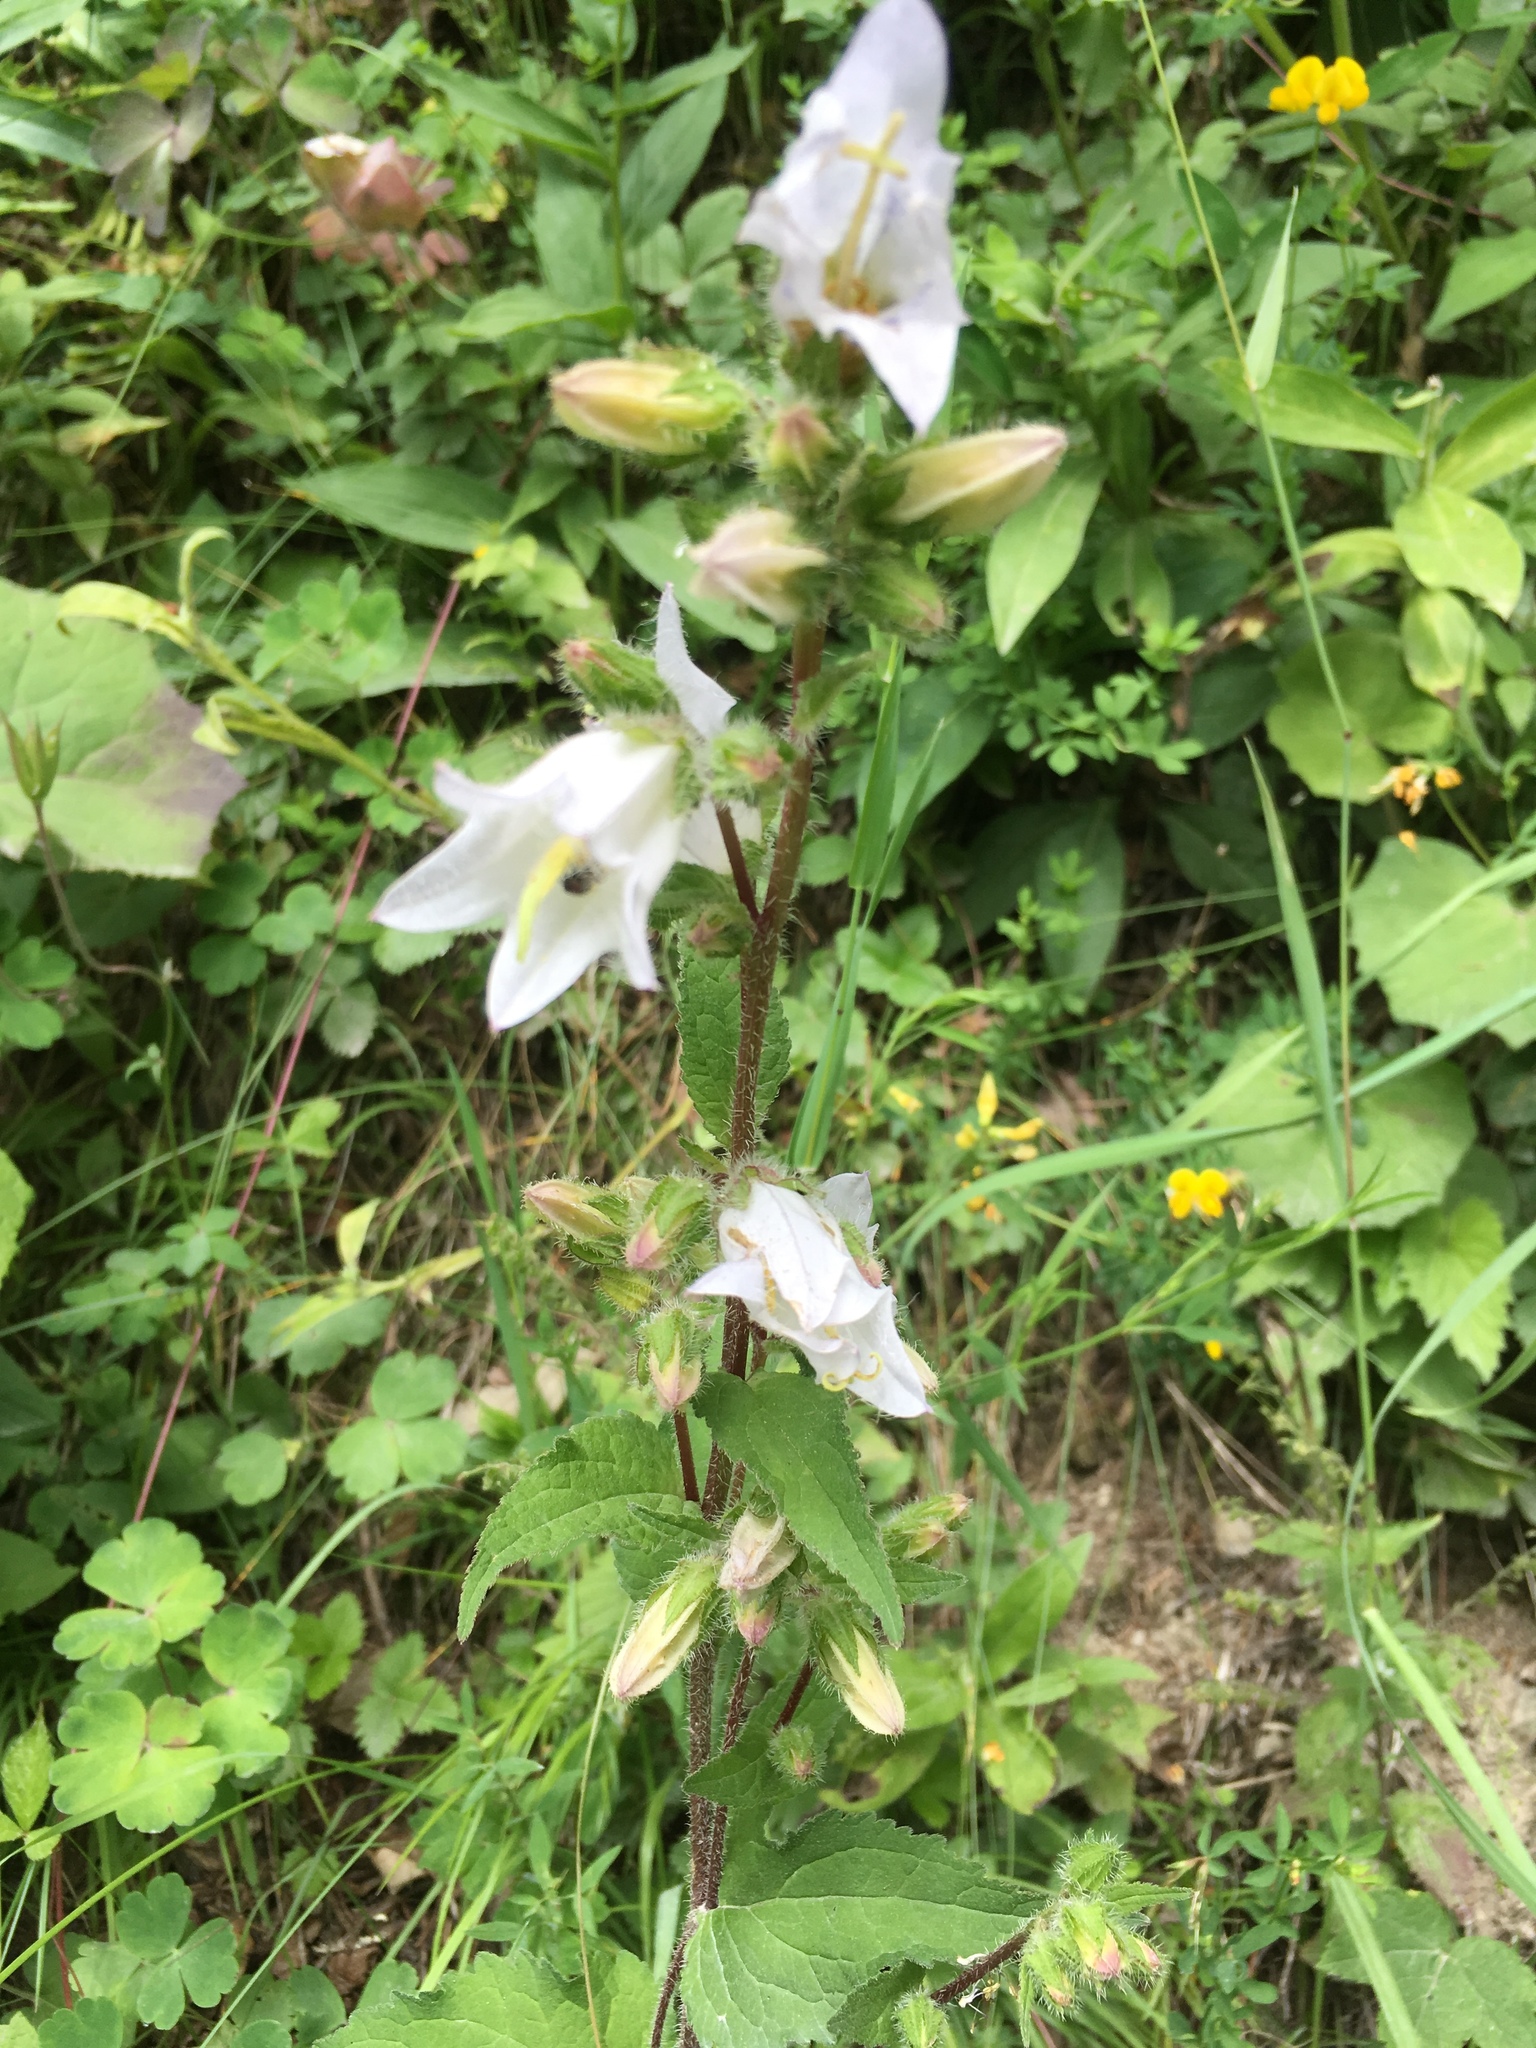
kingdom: Plantae
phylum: Tracheophyta
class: Magnoliopsida
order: Asterales
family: Campanulaceae
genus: Campanula
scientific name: Campanula trachelium
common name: Nettle-leaved bellflower
